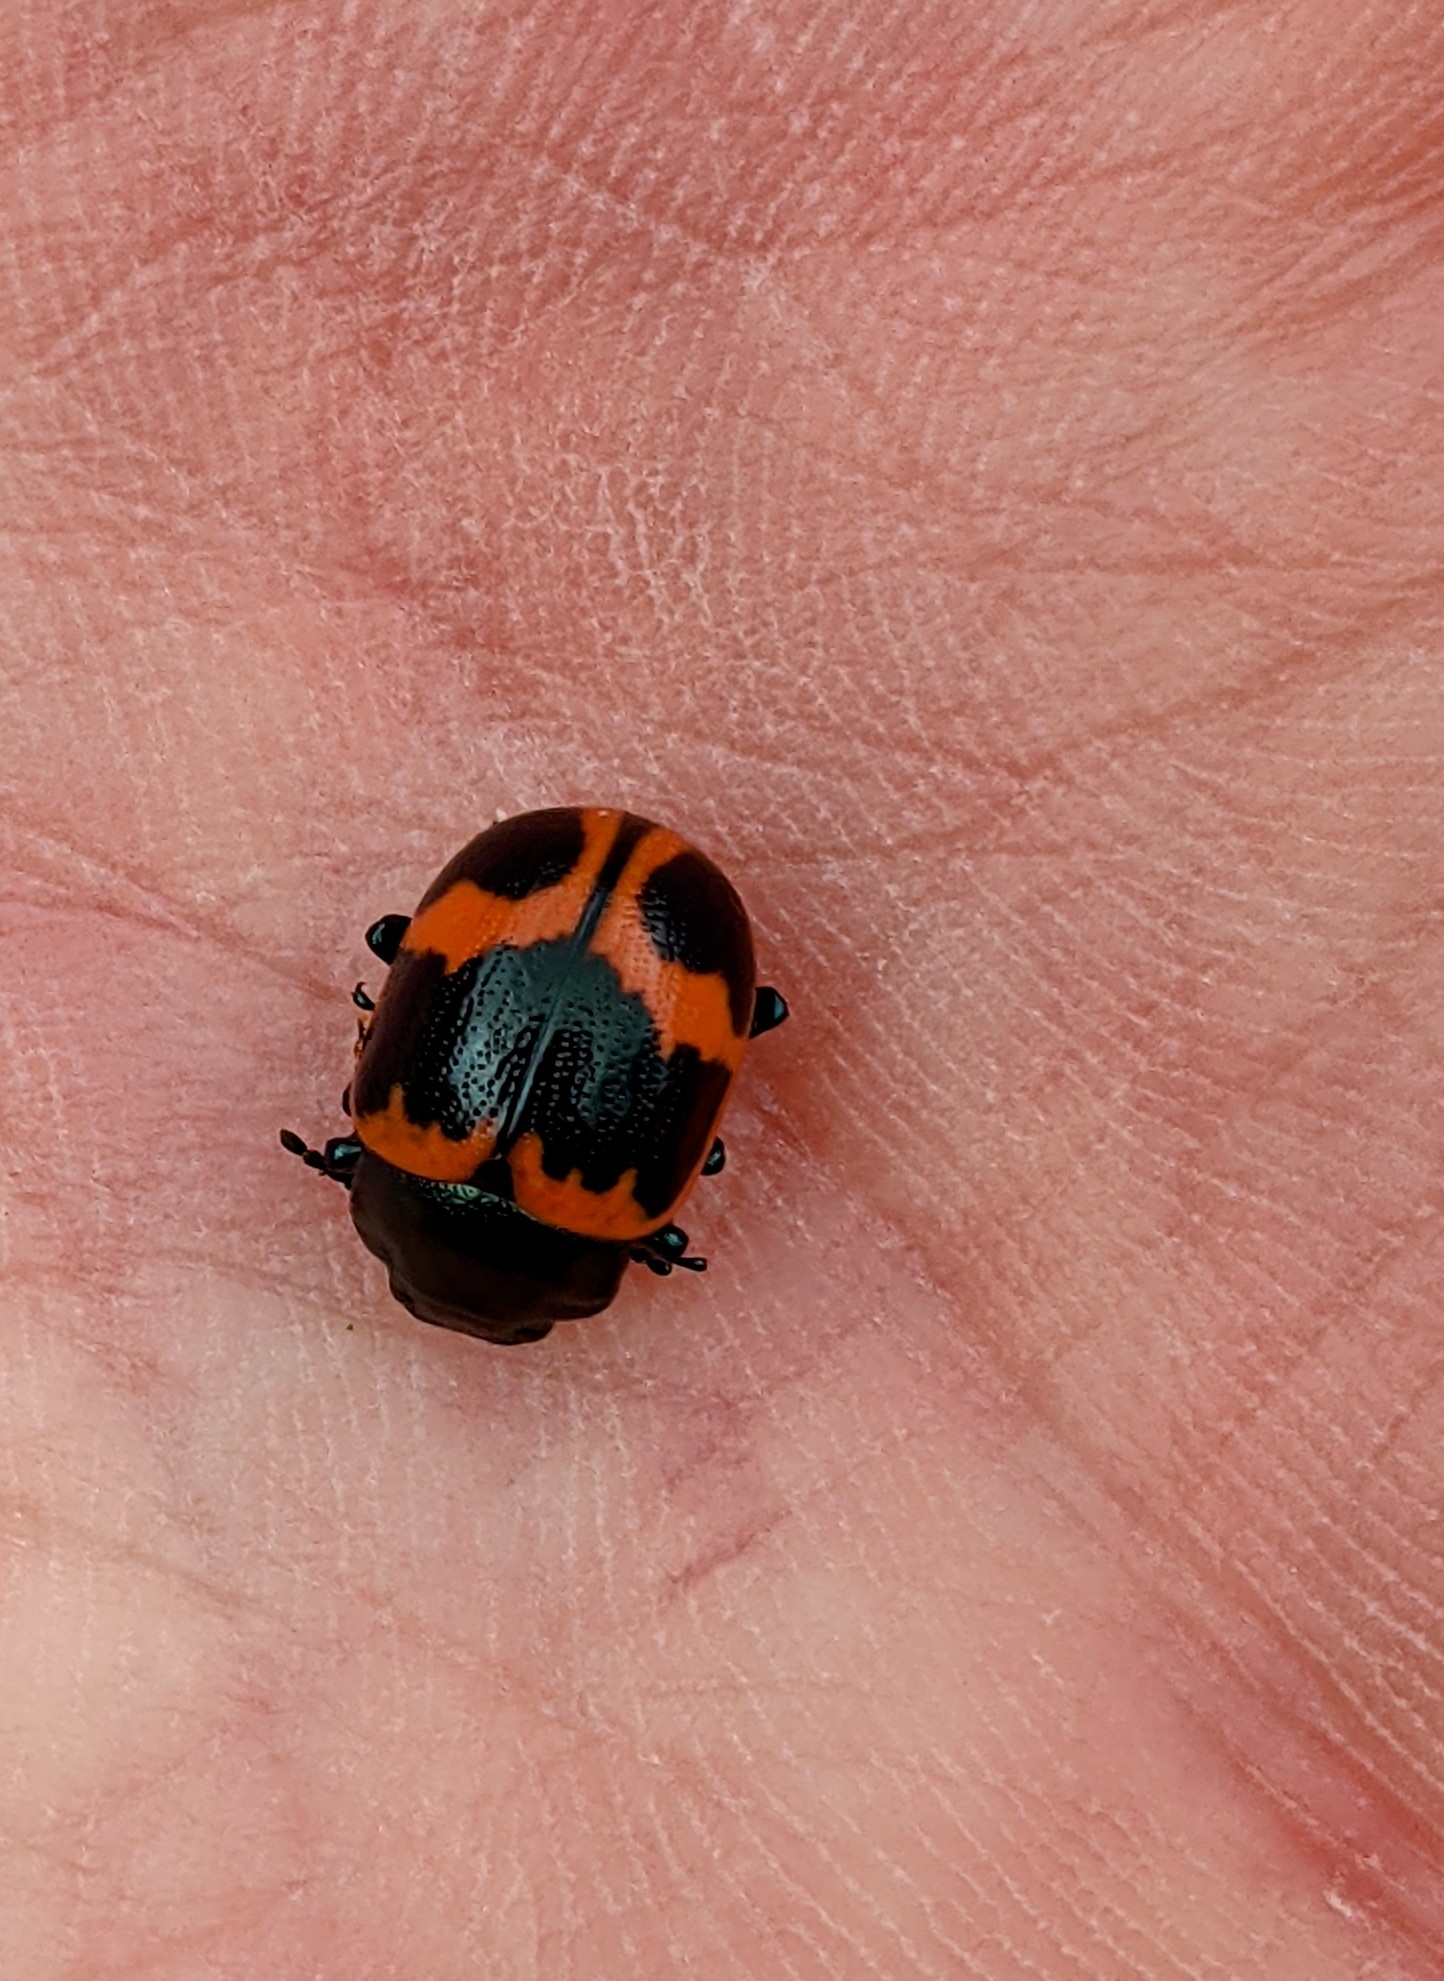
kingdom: Animalia
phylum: Arthropoda
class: Insecta
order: Coleoptera
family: Chrysomelidae
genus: Labidomera
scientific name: Labidomera clivicollis
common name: Swamp milkweed leaf beetle
